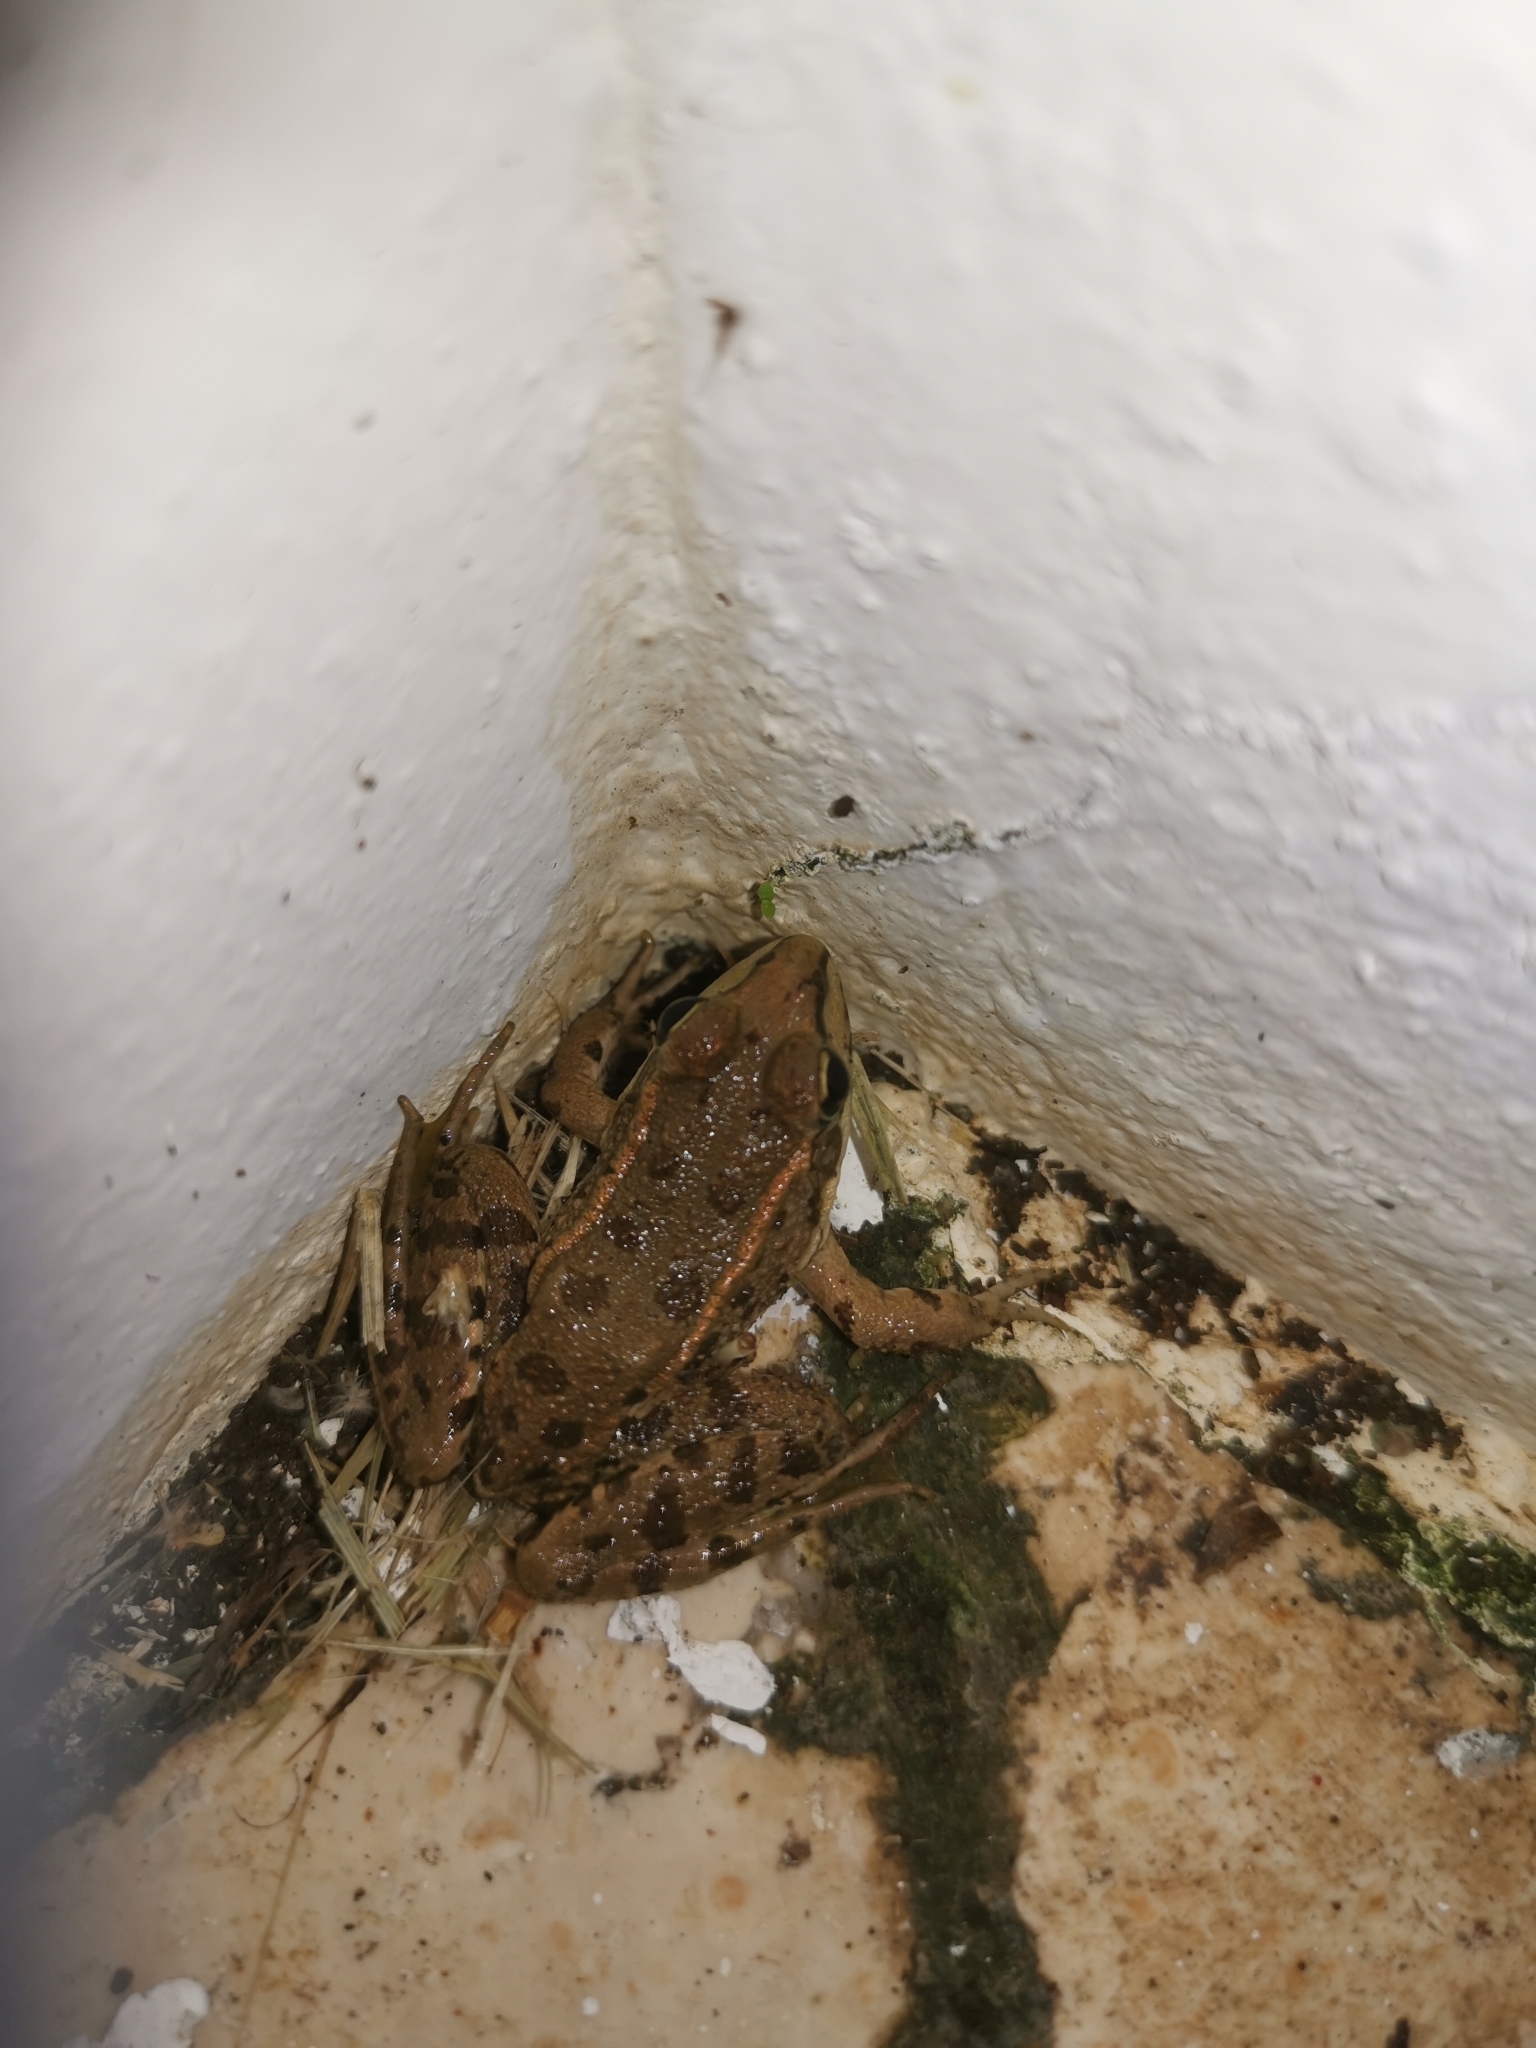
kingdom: Animalia
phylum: Chordata
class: Amphibia
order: Anura
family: Ranidae
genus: Pelophylax
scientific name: Pelophylax perezi
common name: Perez's frog
